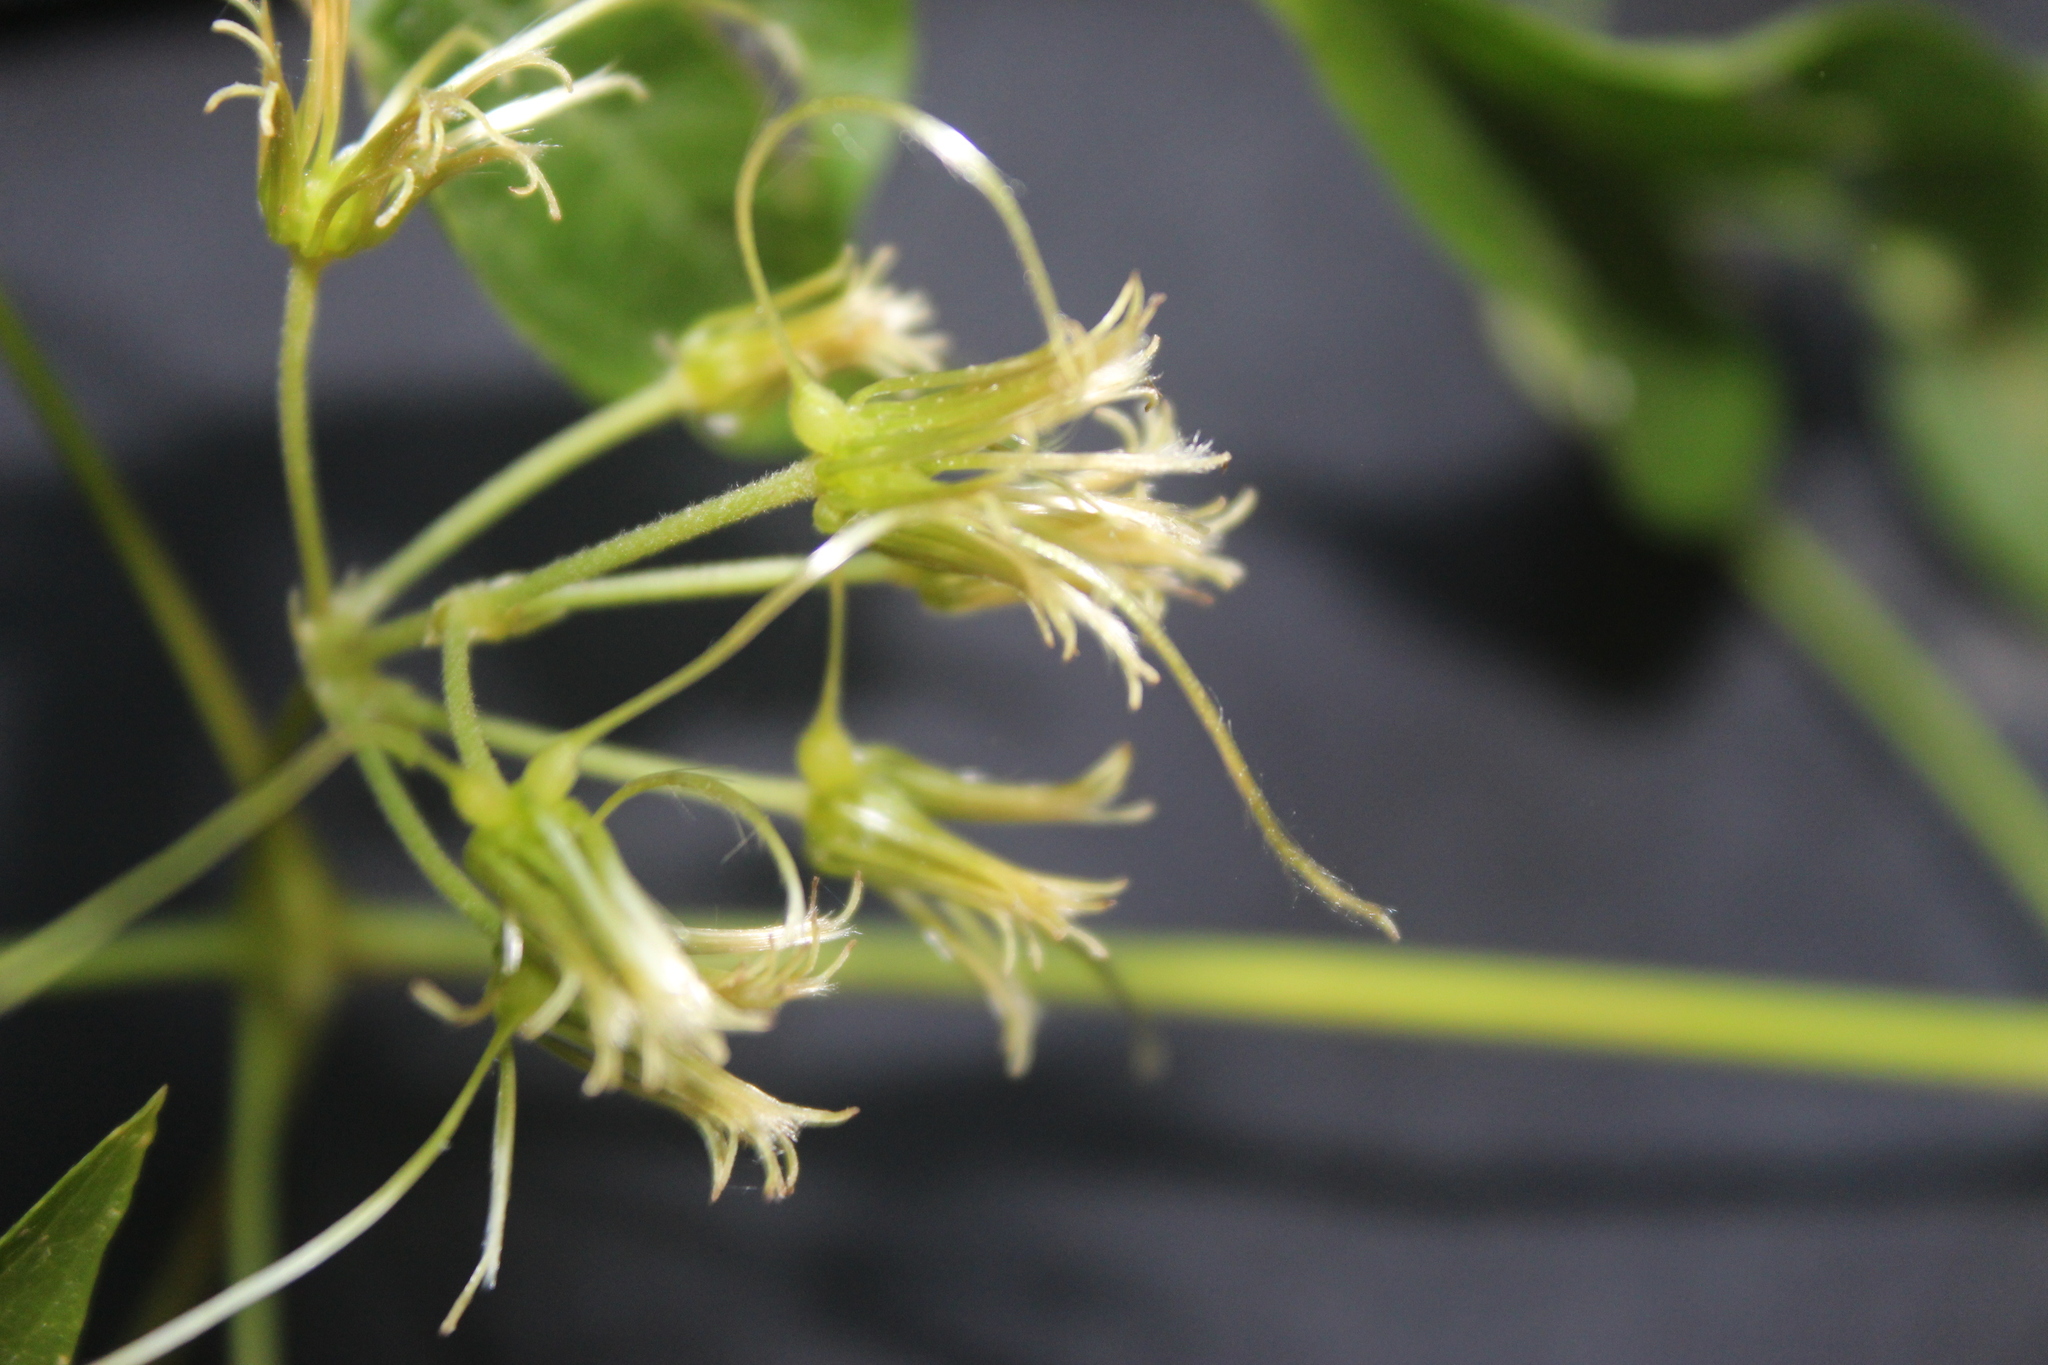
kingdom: Plantae
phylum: Tracheophyta
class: Magnoliopsida
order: Ranunculales
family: Ranunculaceae
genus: Clematis
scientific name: Clematis acapulcensis
